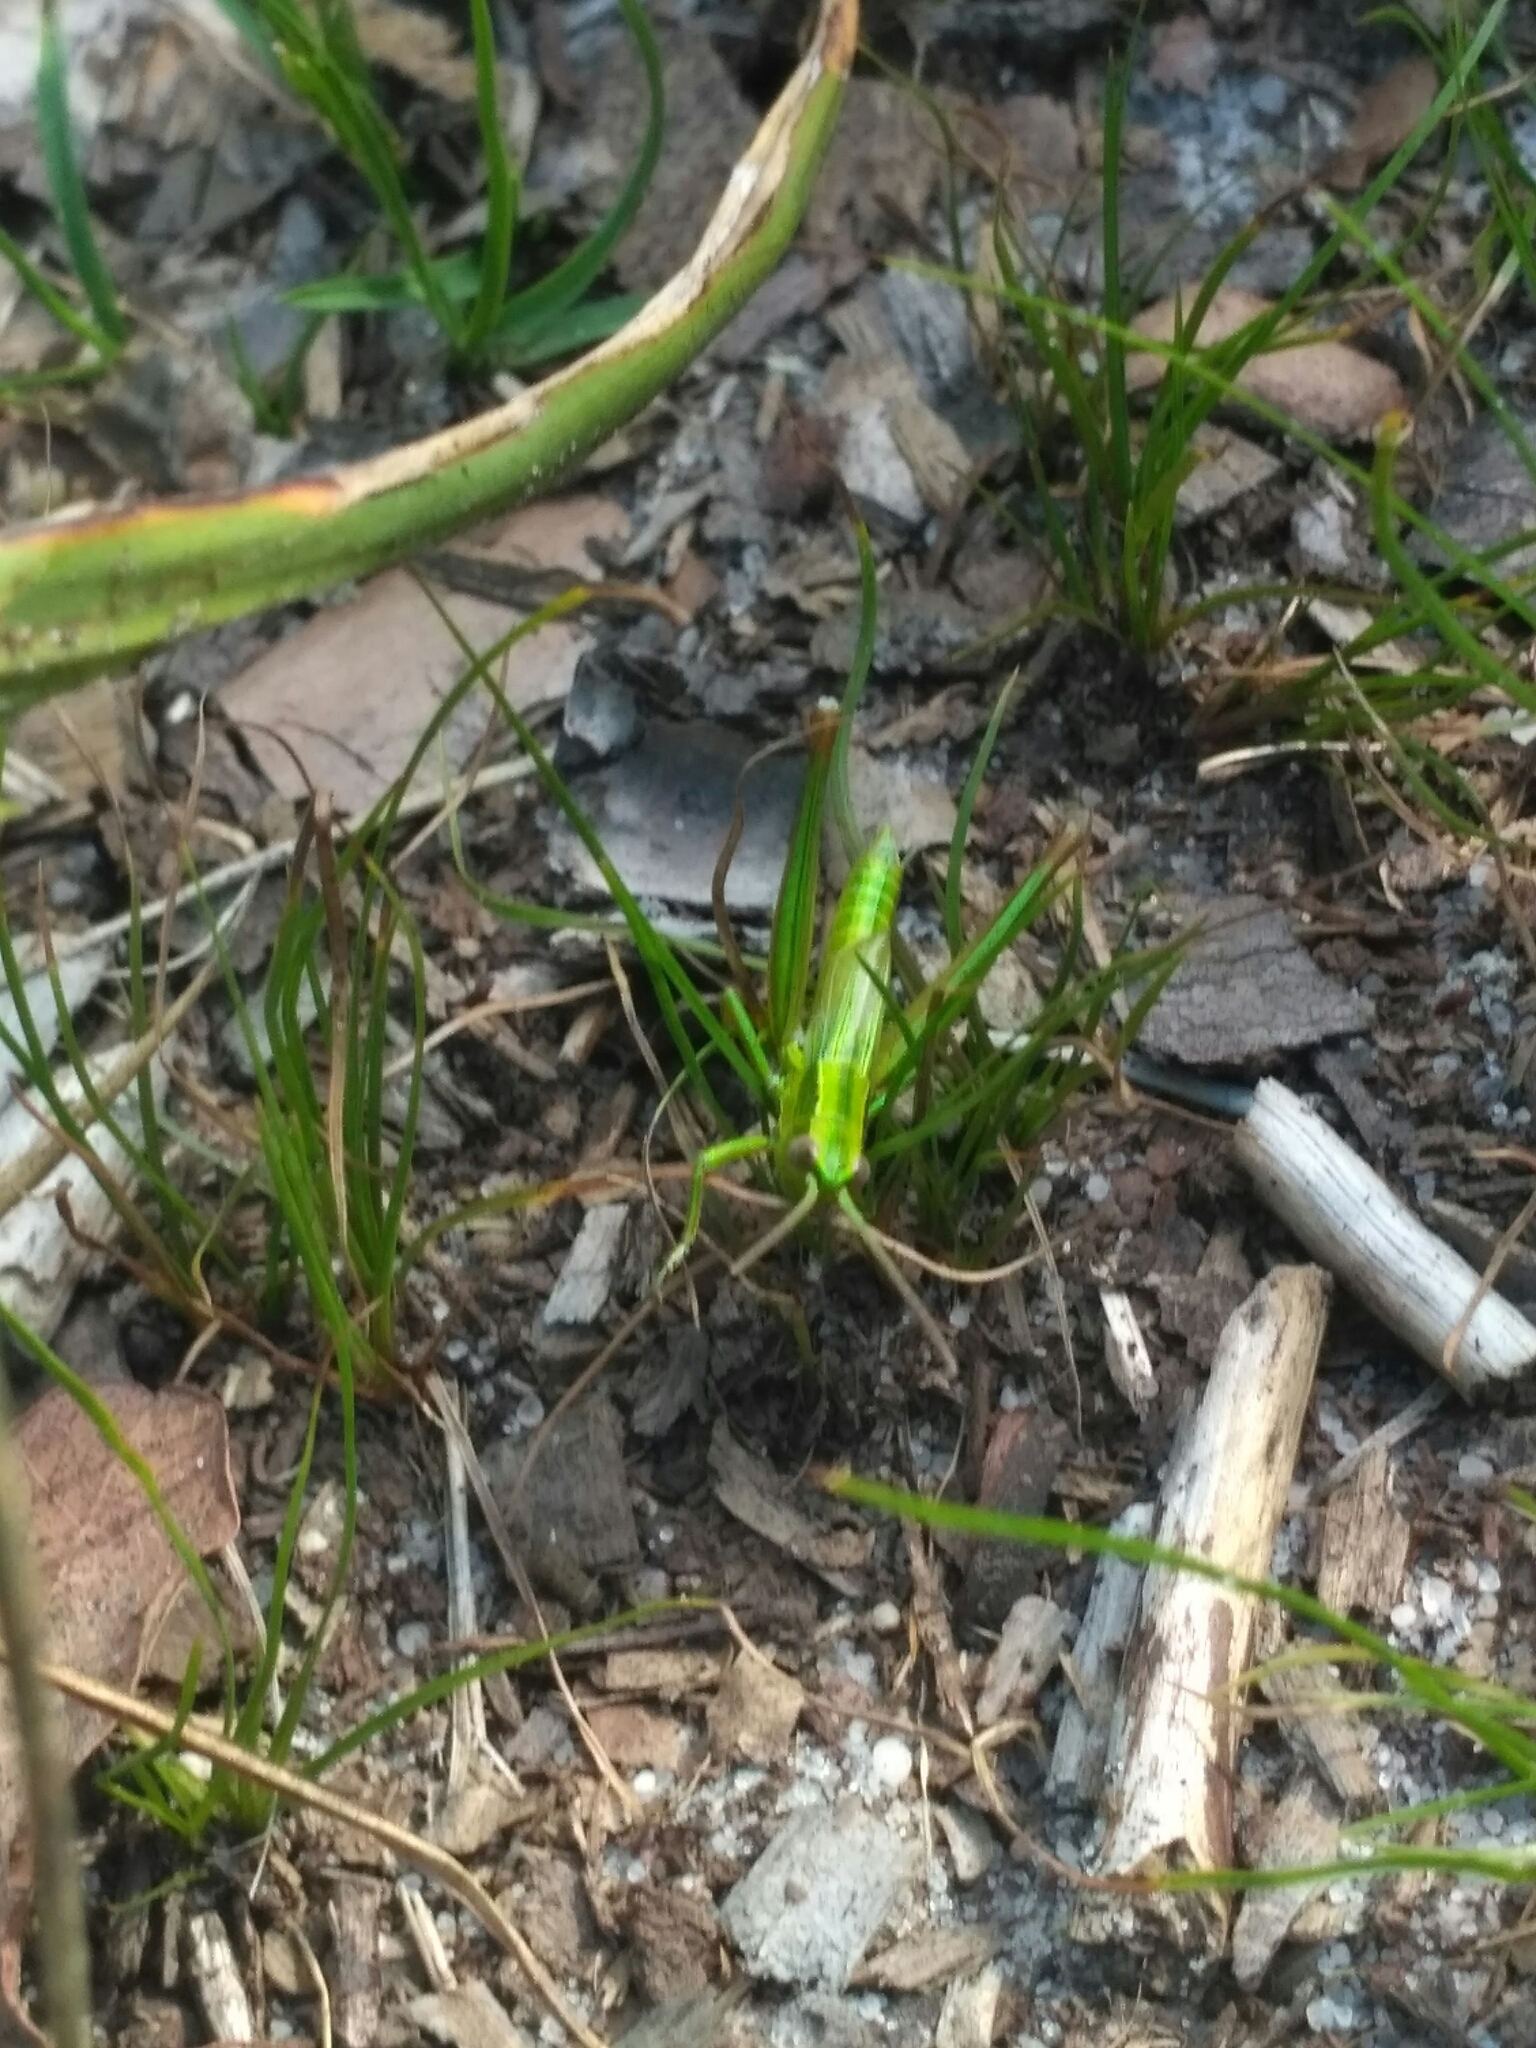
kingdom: Animalia
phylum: Arthropoda
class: Insecta
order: Orthoptera
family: Acrididae
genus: Euthystira
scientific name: Euthystira brachyptera
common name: Small gold grasshopper
